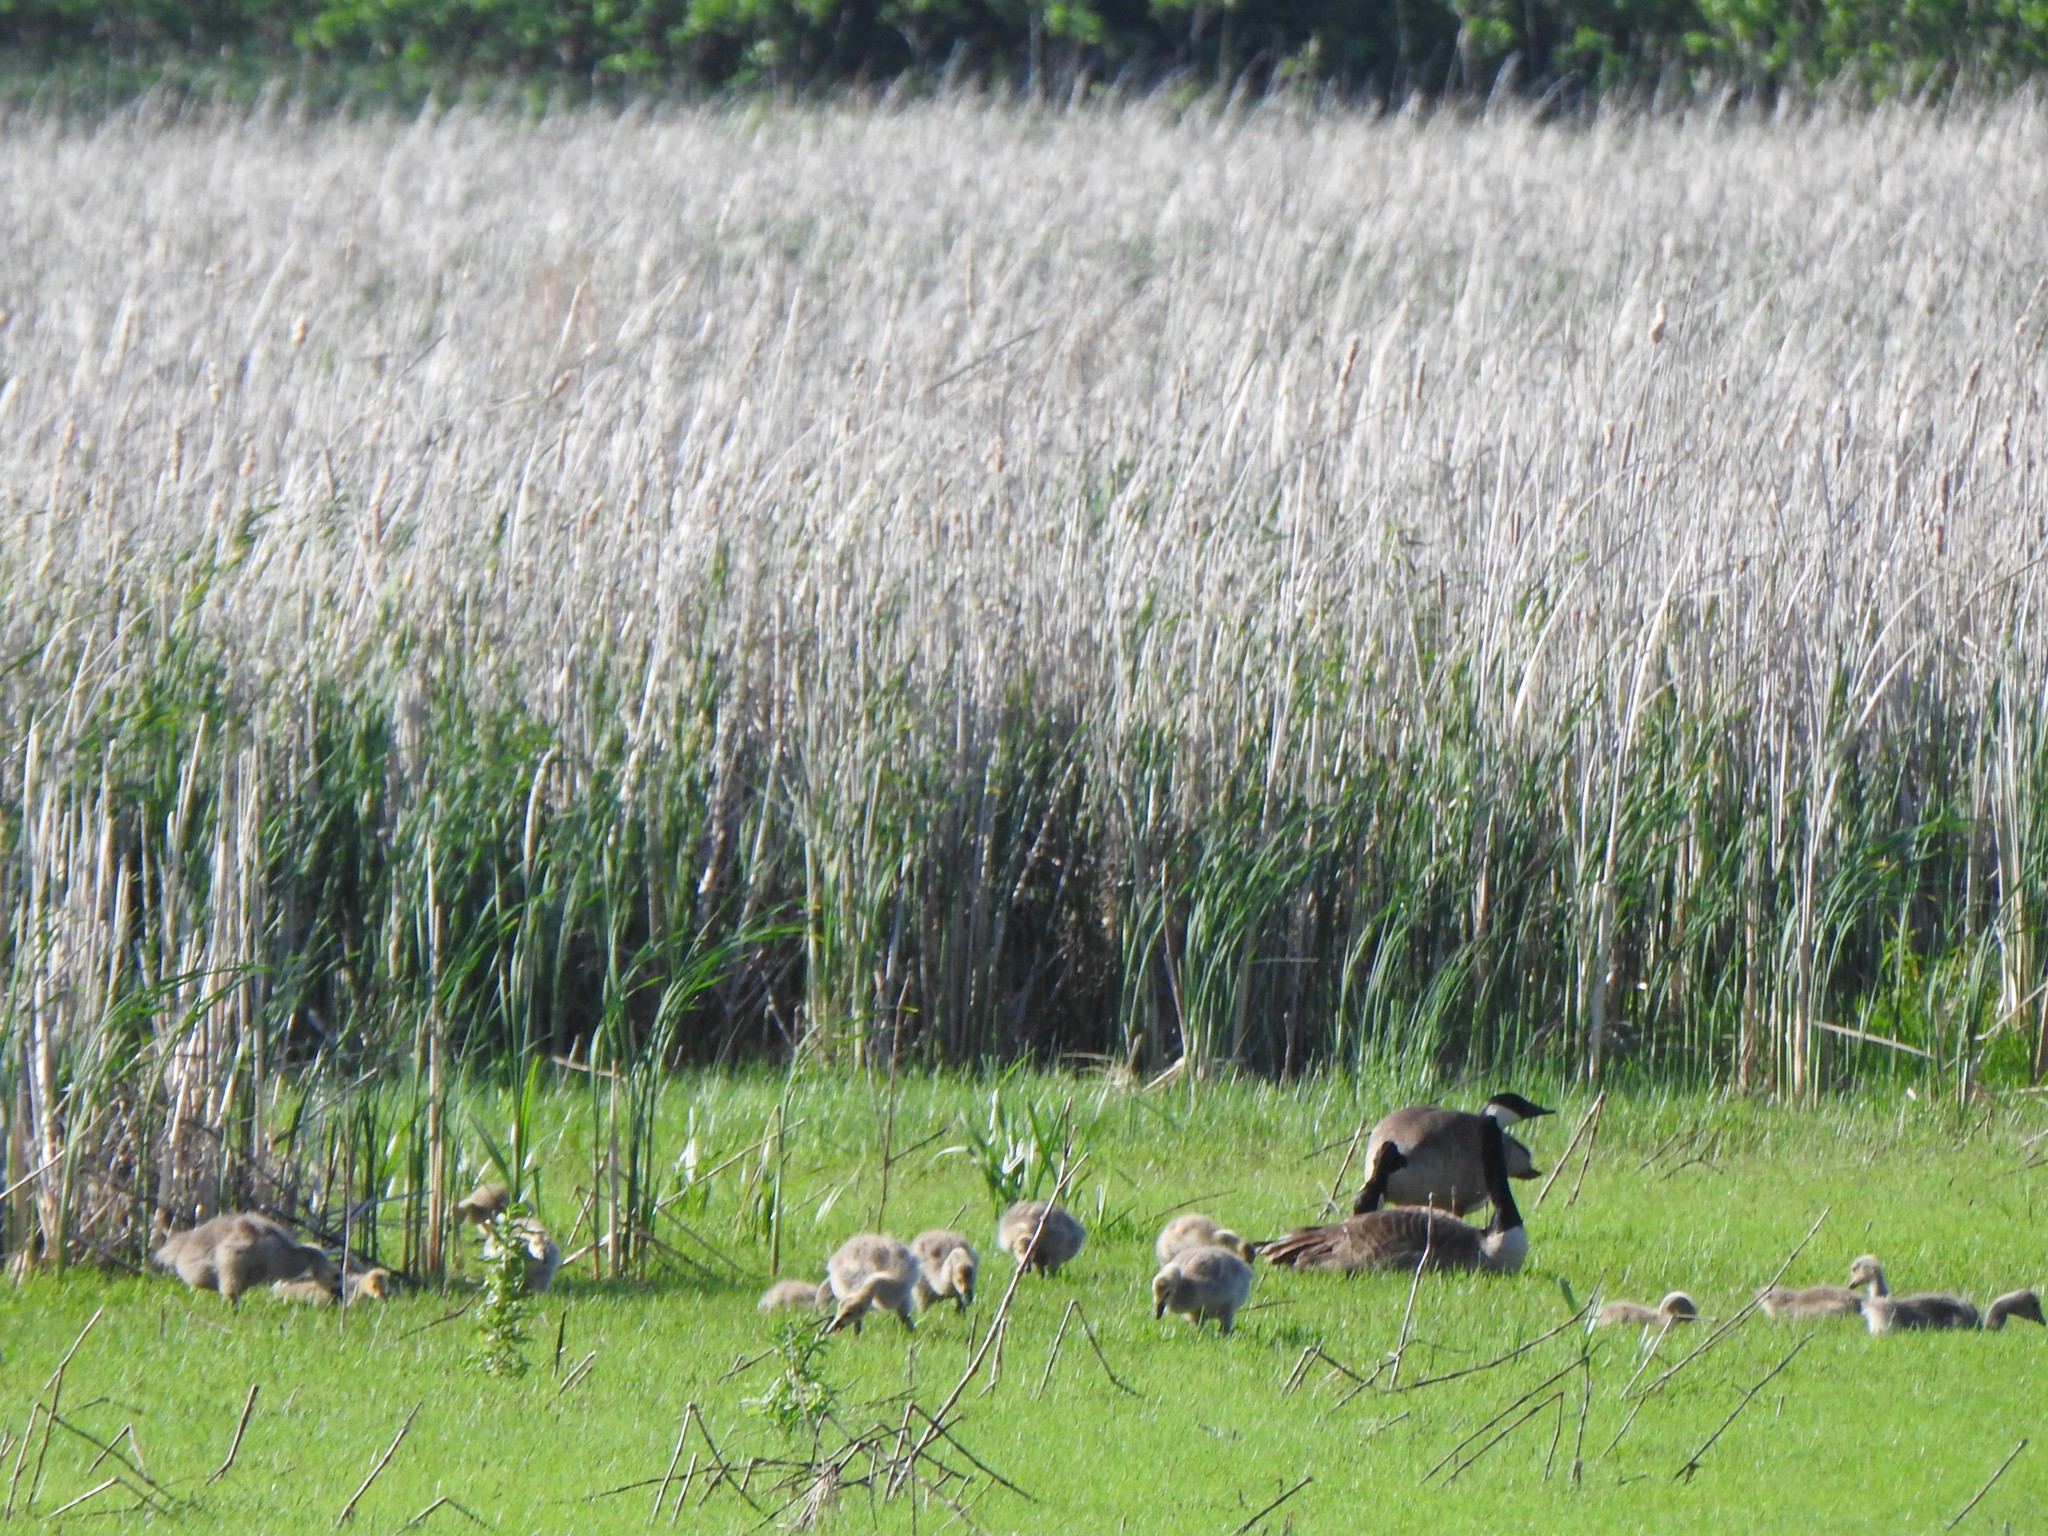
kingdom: Animalia
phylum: Chordata
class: Aves
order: Anseriformes
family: Anatidae
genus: Branta
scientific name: Branta canadensis
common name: Canada goose
